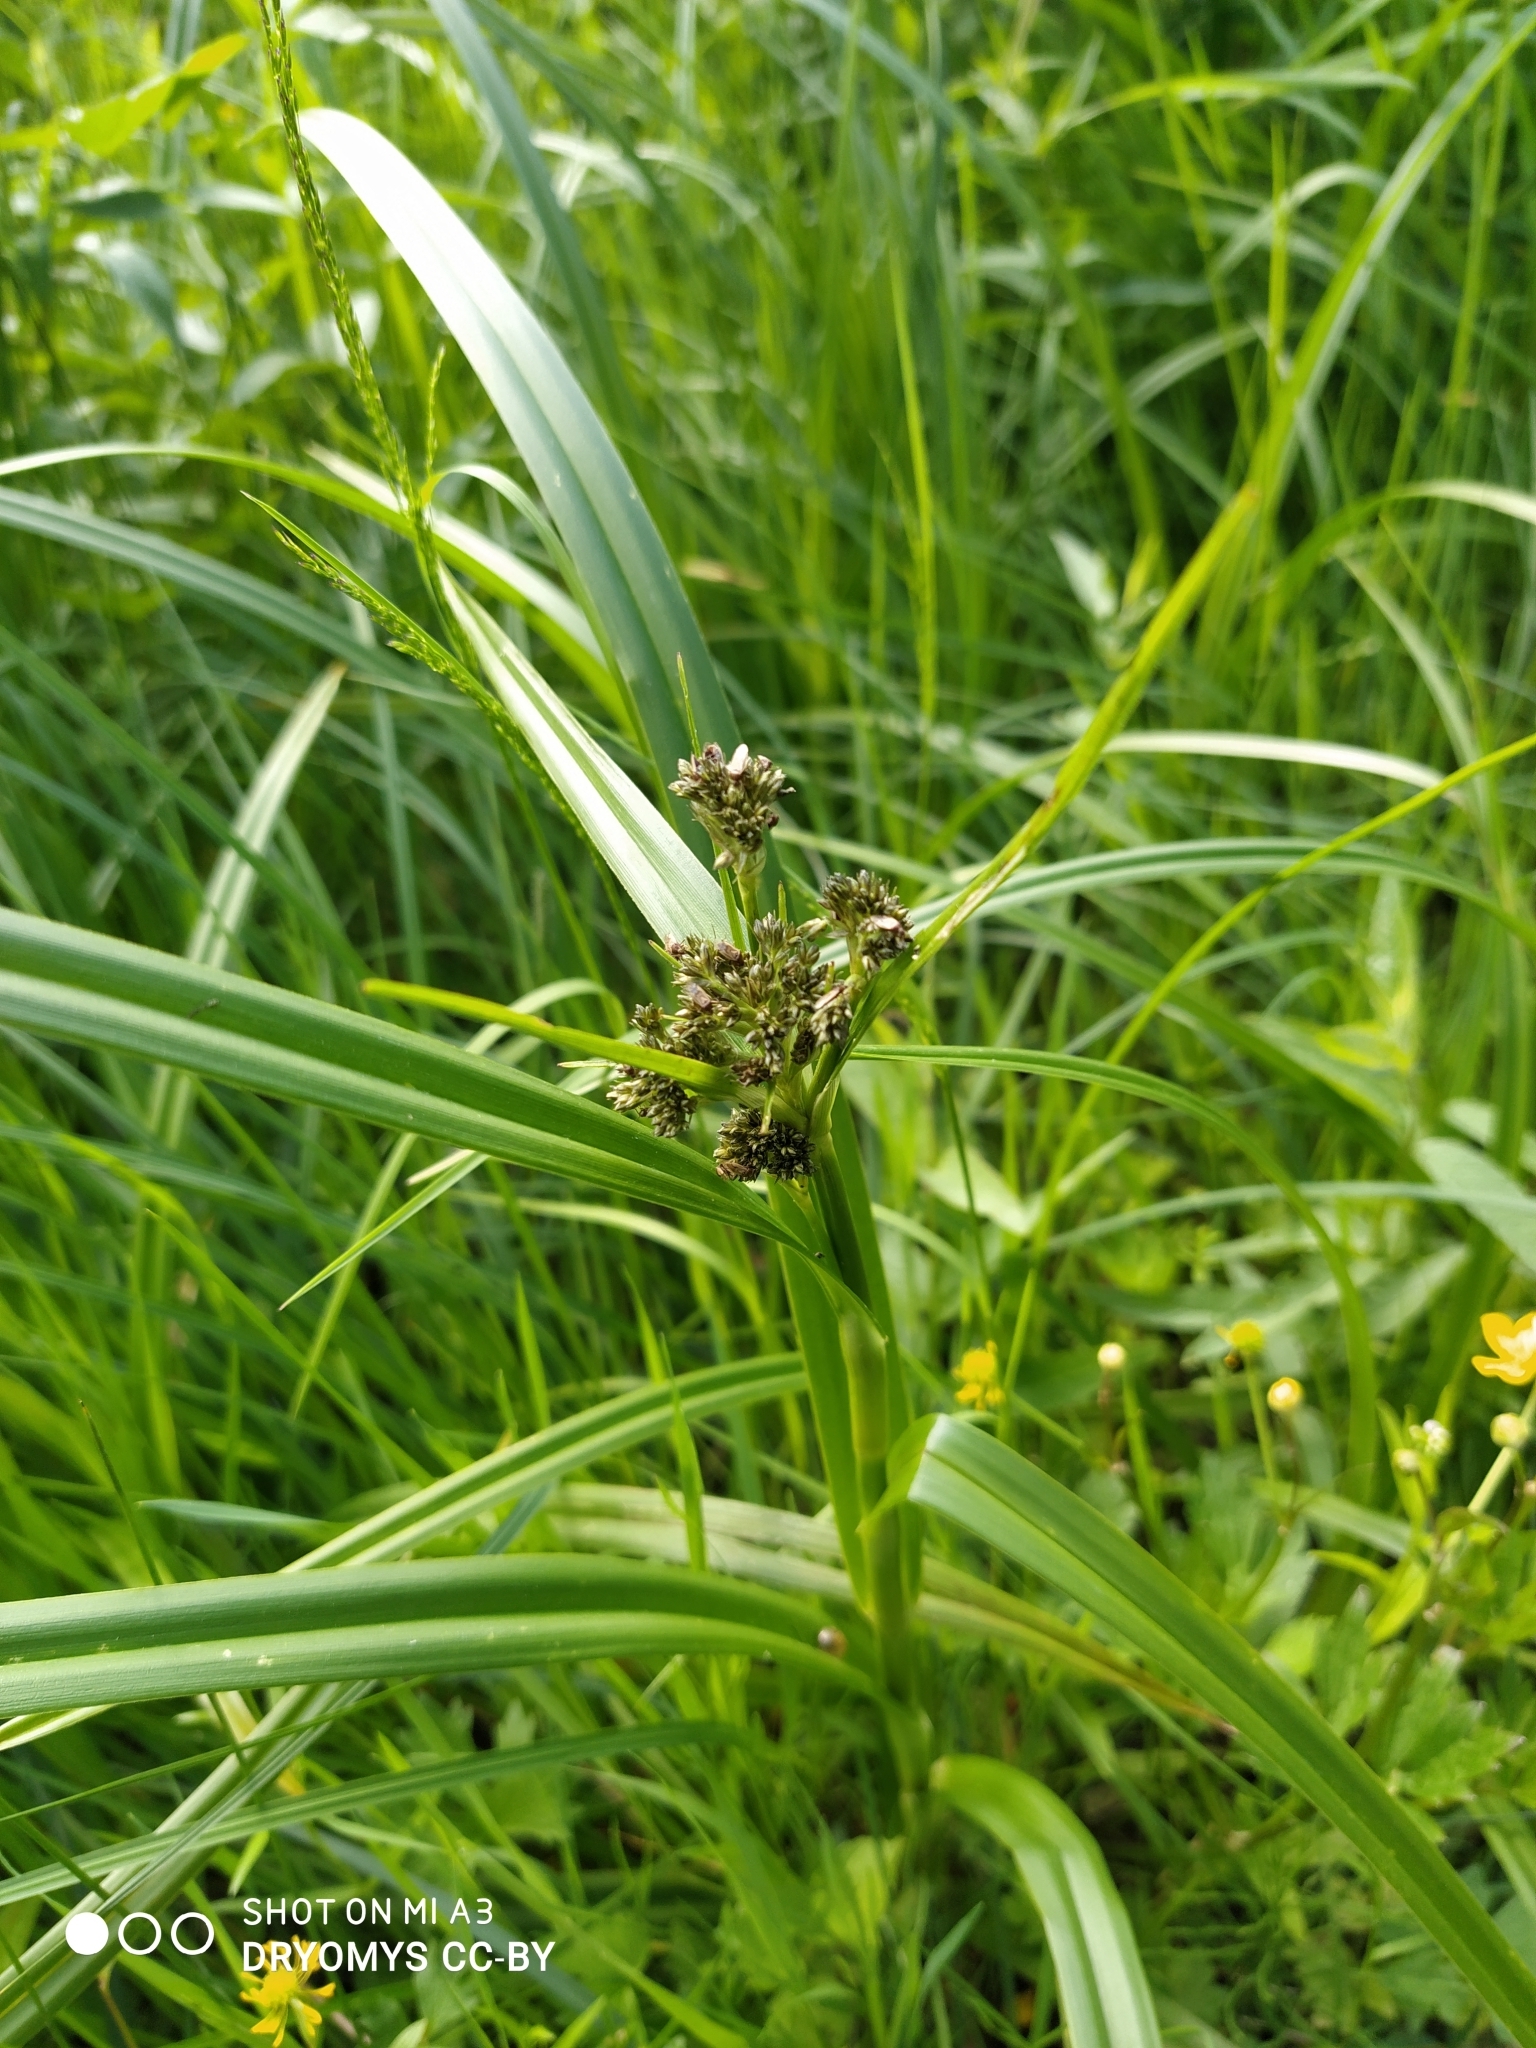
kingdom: Plantae
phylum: Tracheophyta
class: Liliopsida
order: Poales
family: Cyperaceae
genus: Scirpus
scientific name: Scirpus sylvaticus
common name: Wood club-rush
